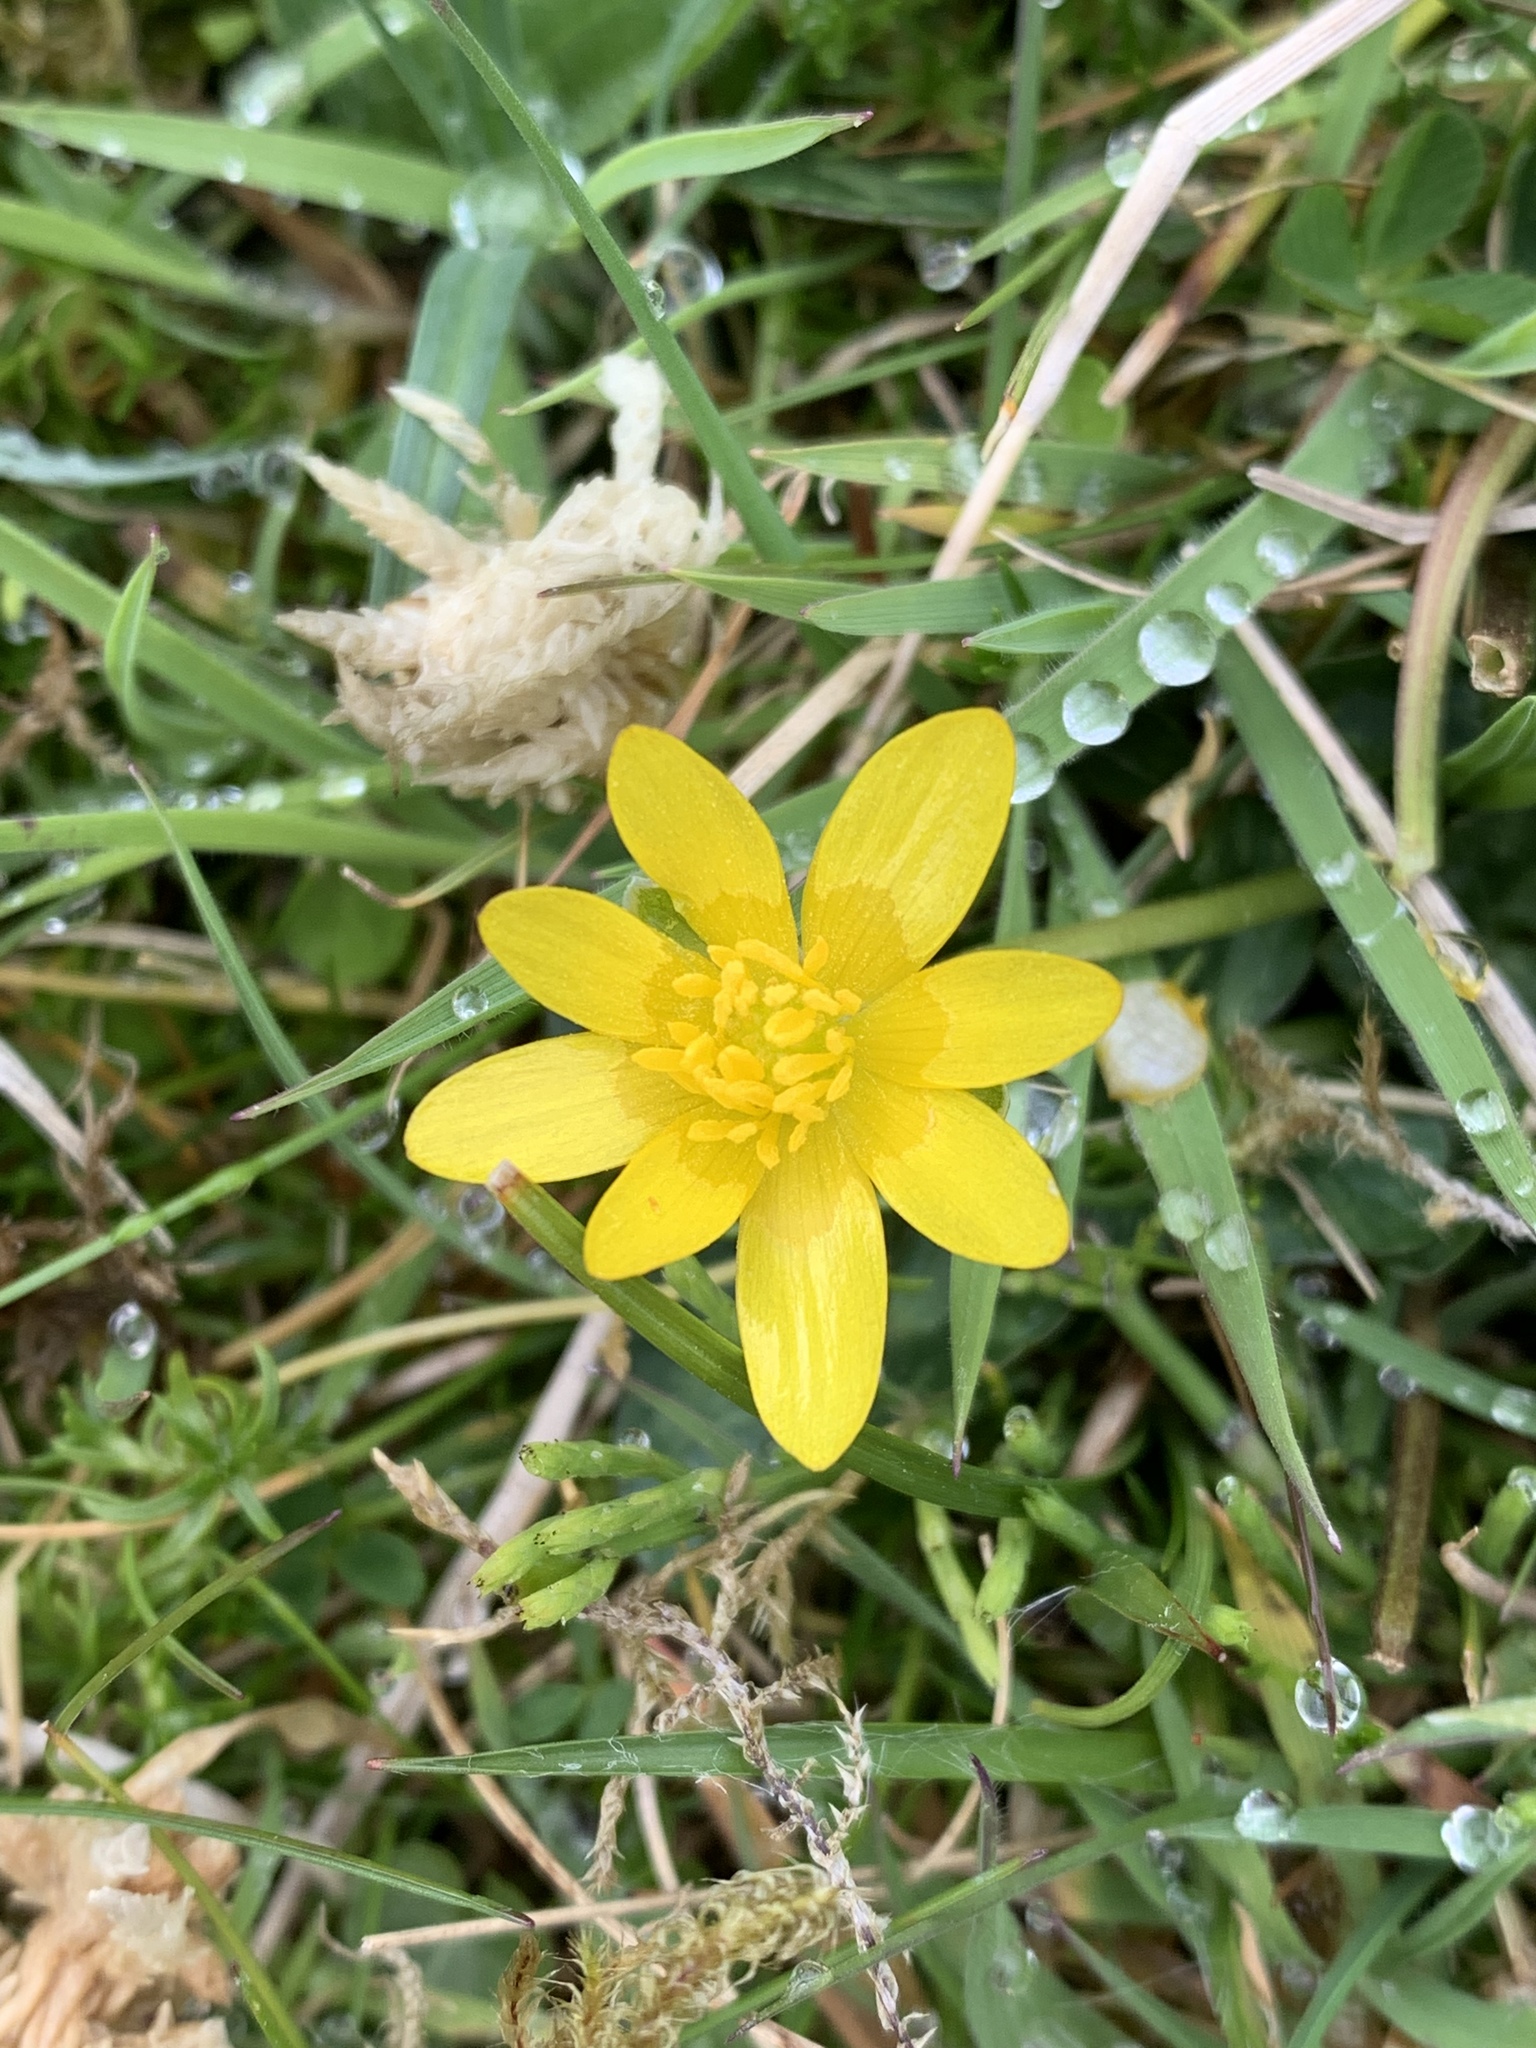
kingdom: Plantae
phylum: Tracheophyta
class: Magnoliopsida
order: Ranunculales
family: Ranunculaceae
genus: Ficaria
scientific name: Ficaria verna
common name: Lesser celandine
